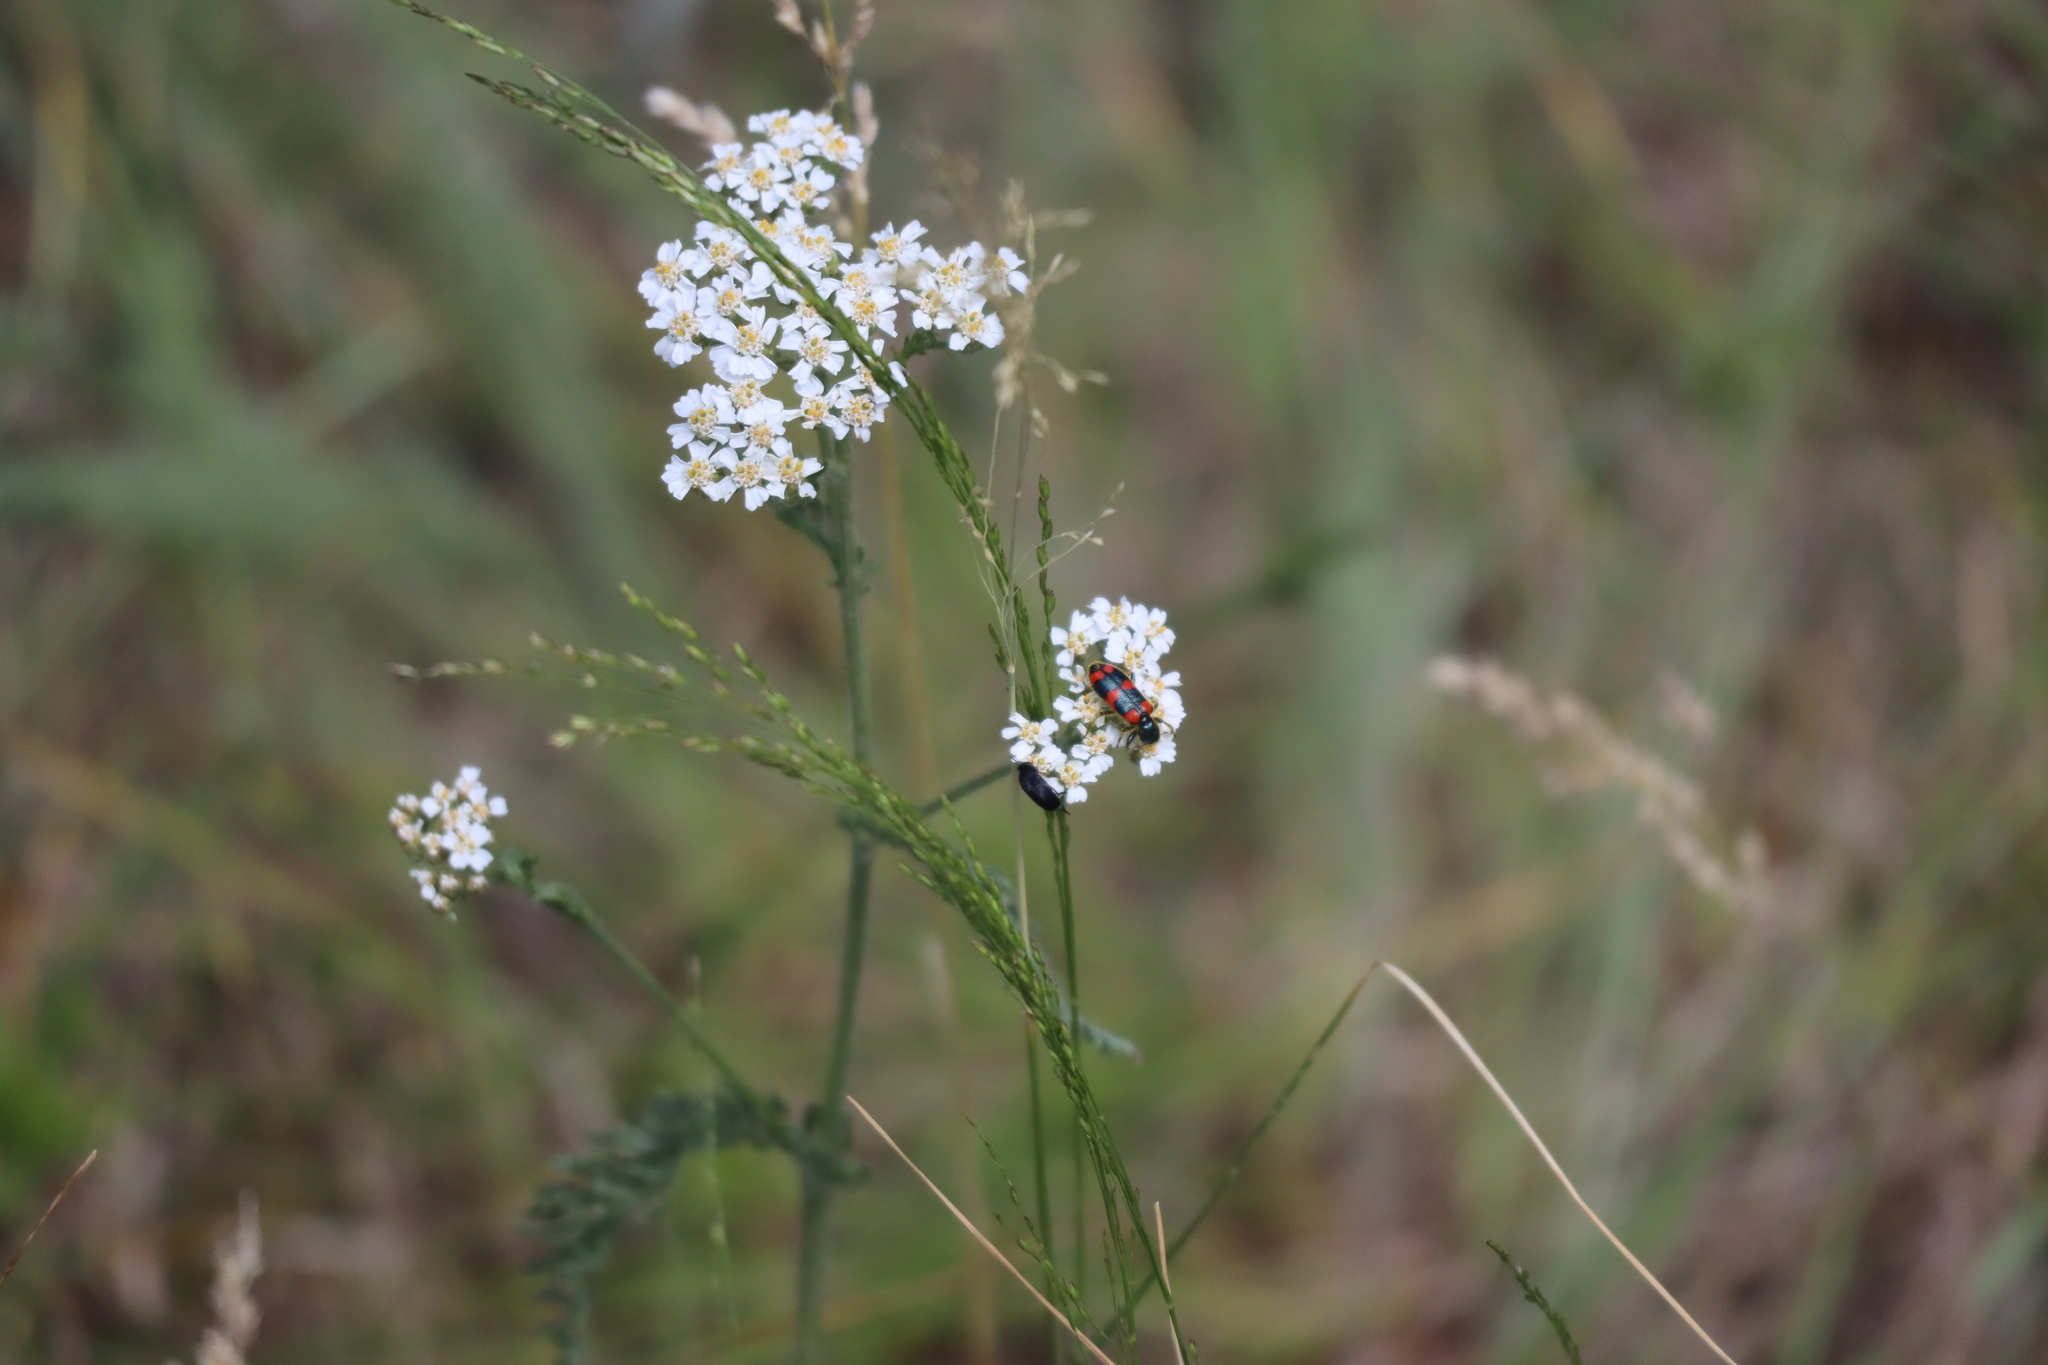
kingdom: Plantae
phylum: Tracheophyta
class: Magnoliopsida
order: Asterales
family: Asteraceae
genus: Achillea
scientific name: Achillea millefolium
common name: Yarrow
